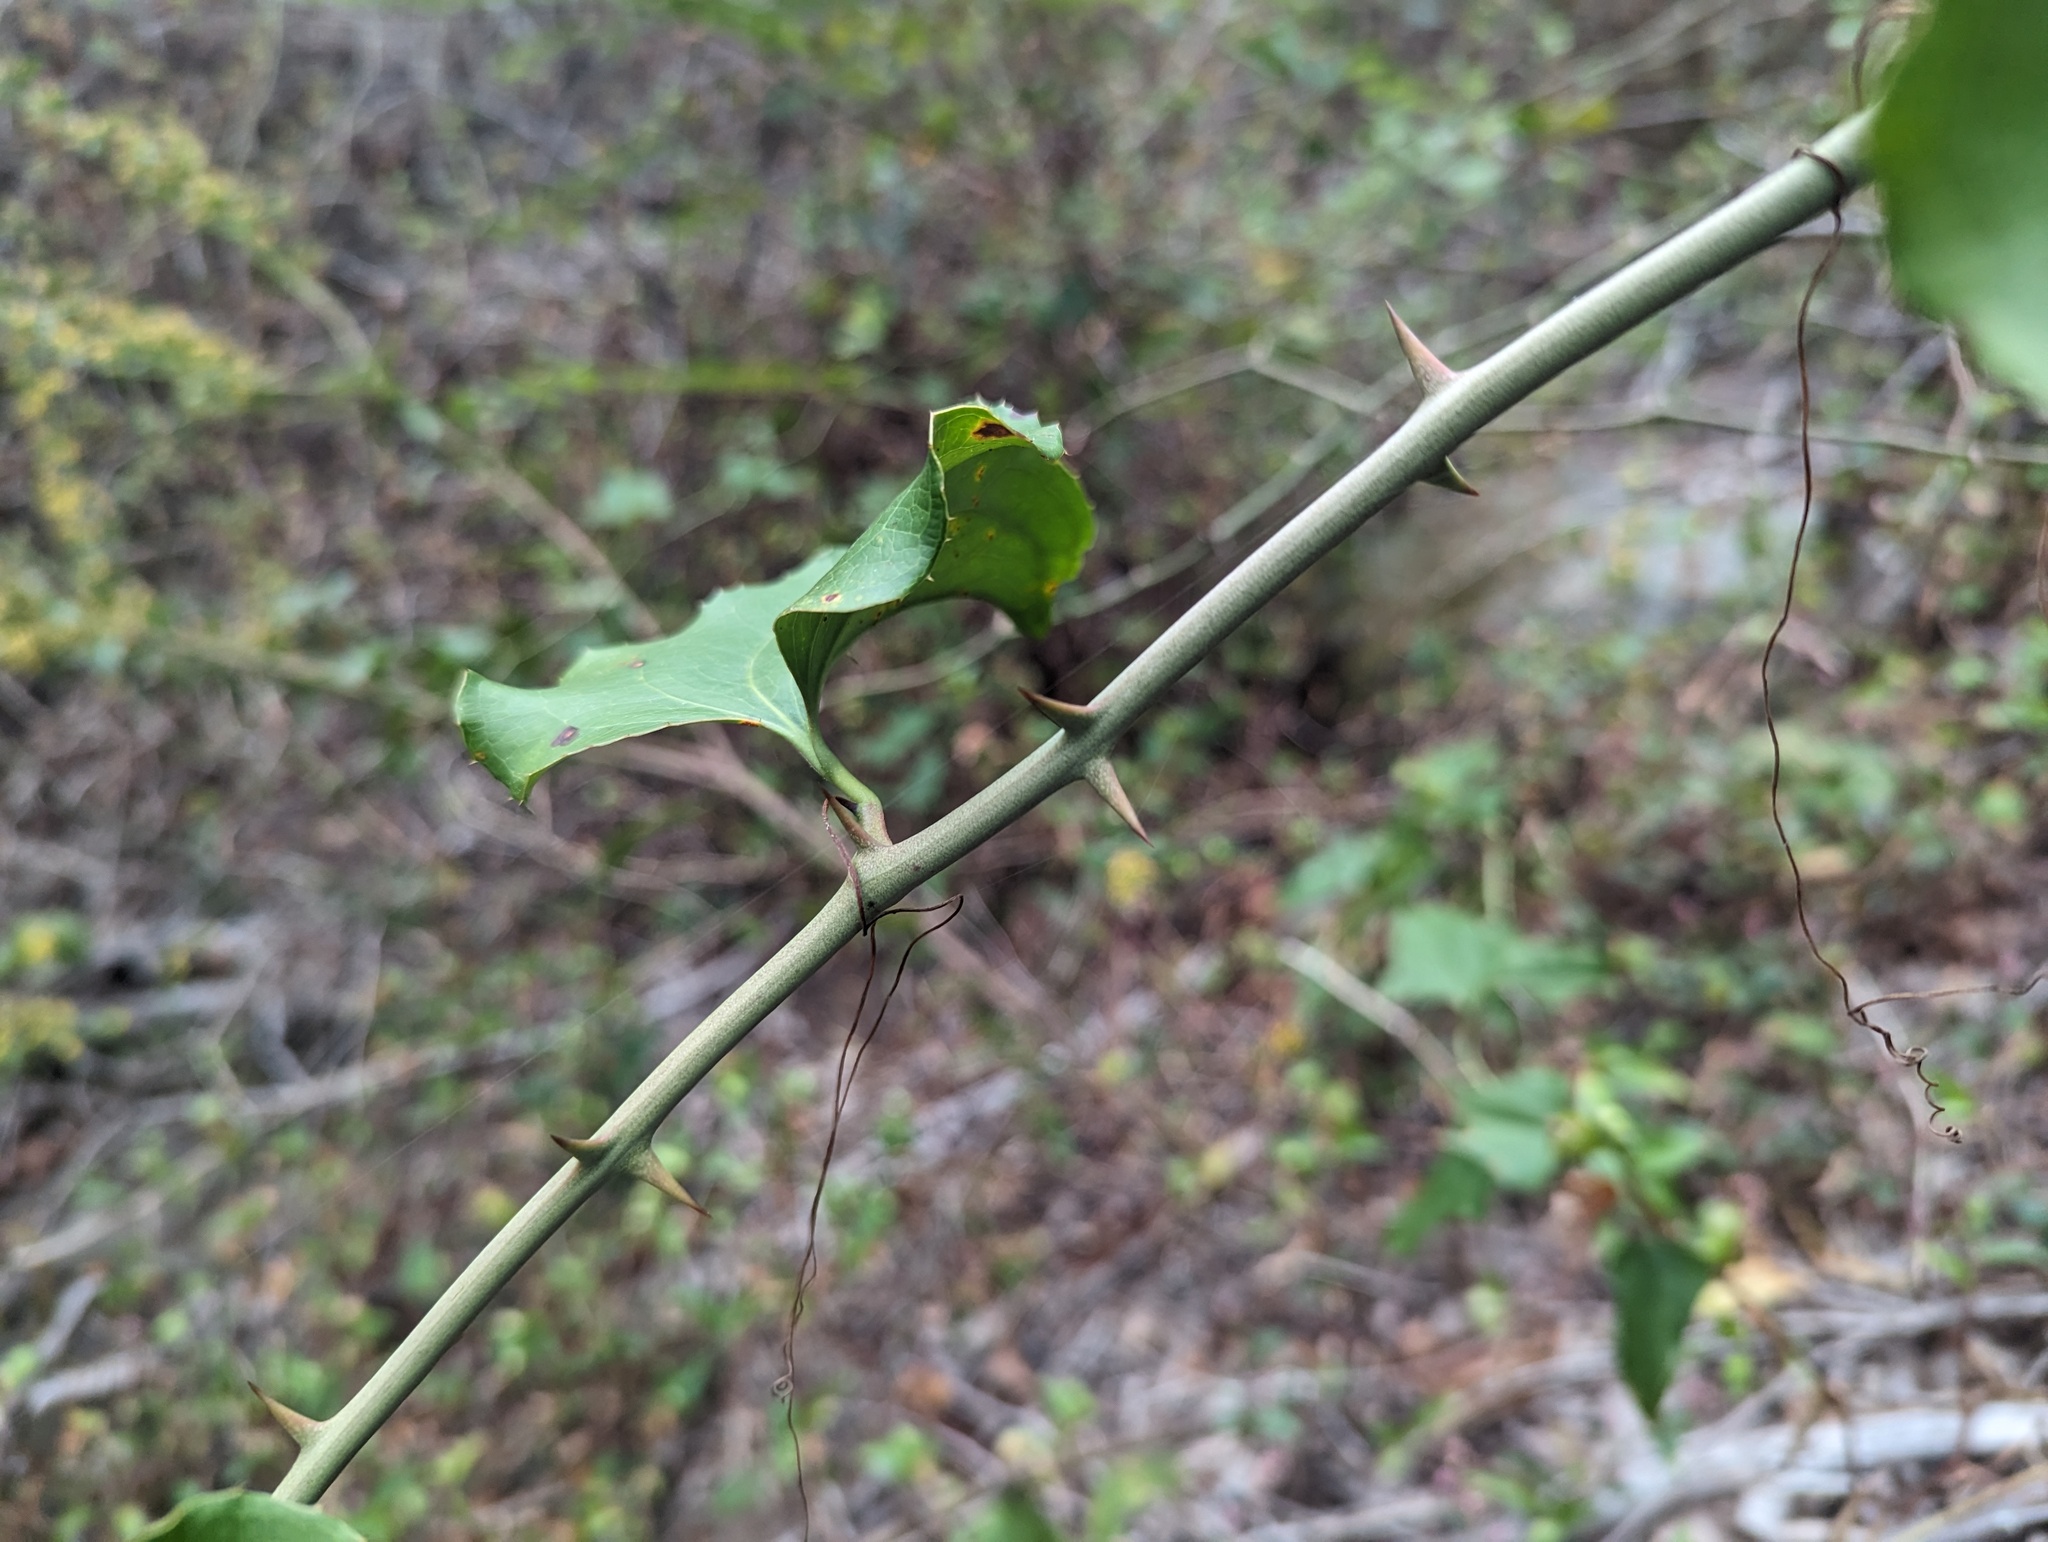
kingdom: Plantae
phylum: Tracheophyta
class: Liliopsida
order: Liliales
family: Smilacaceae
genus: Smilax
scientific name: Smilax bona-nox
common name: Catbrier
